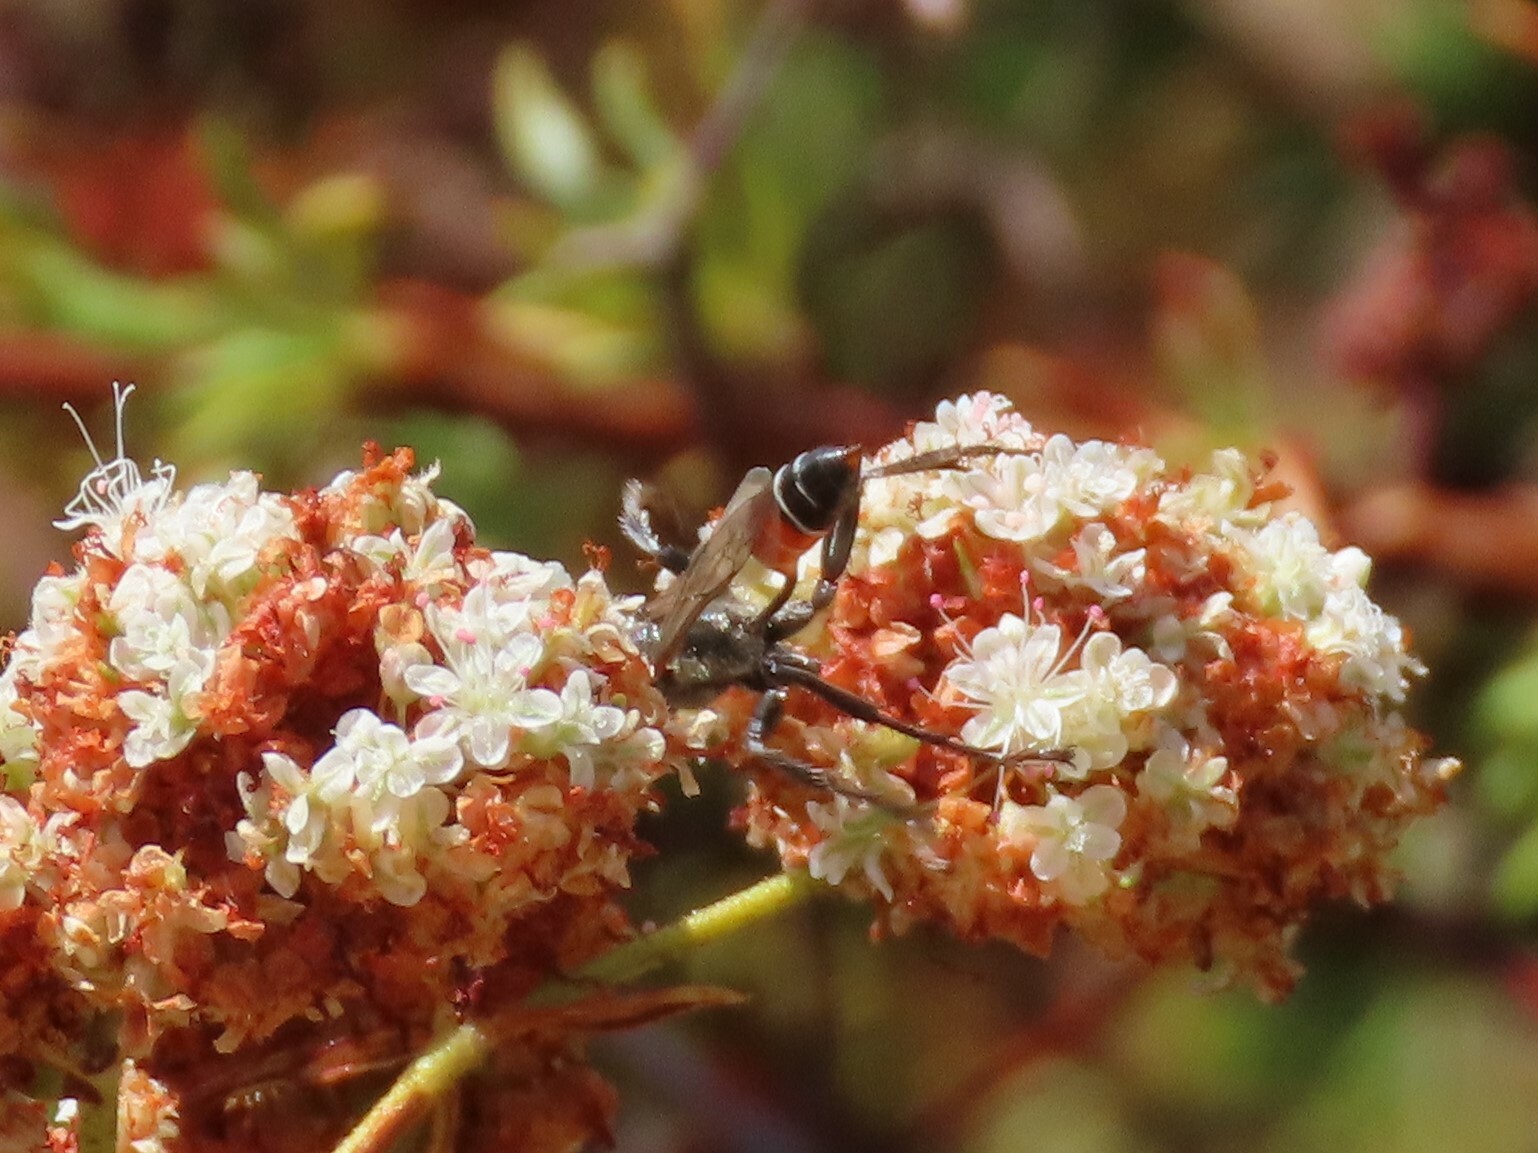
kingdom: Animalia
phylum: Arthropoda
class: Insecta
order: Hymenoptera
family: Sphecidae
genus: Prionyx
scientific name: Prionyx kirbii
